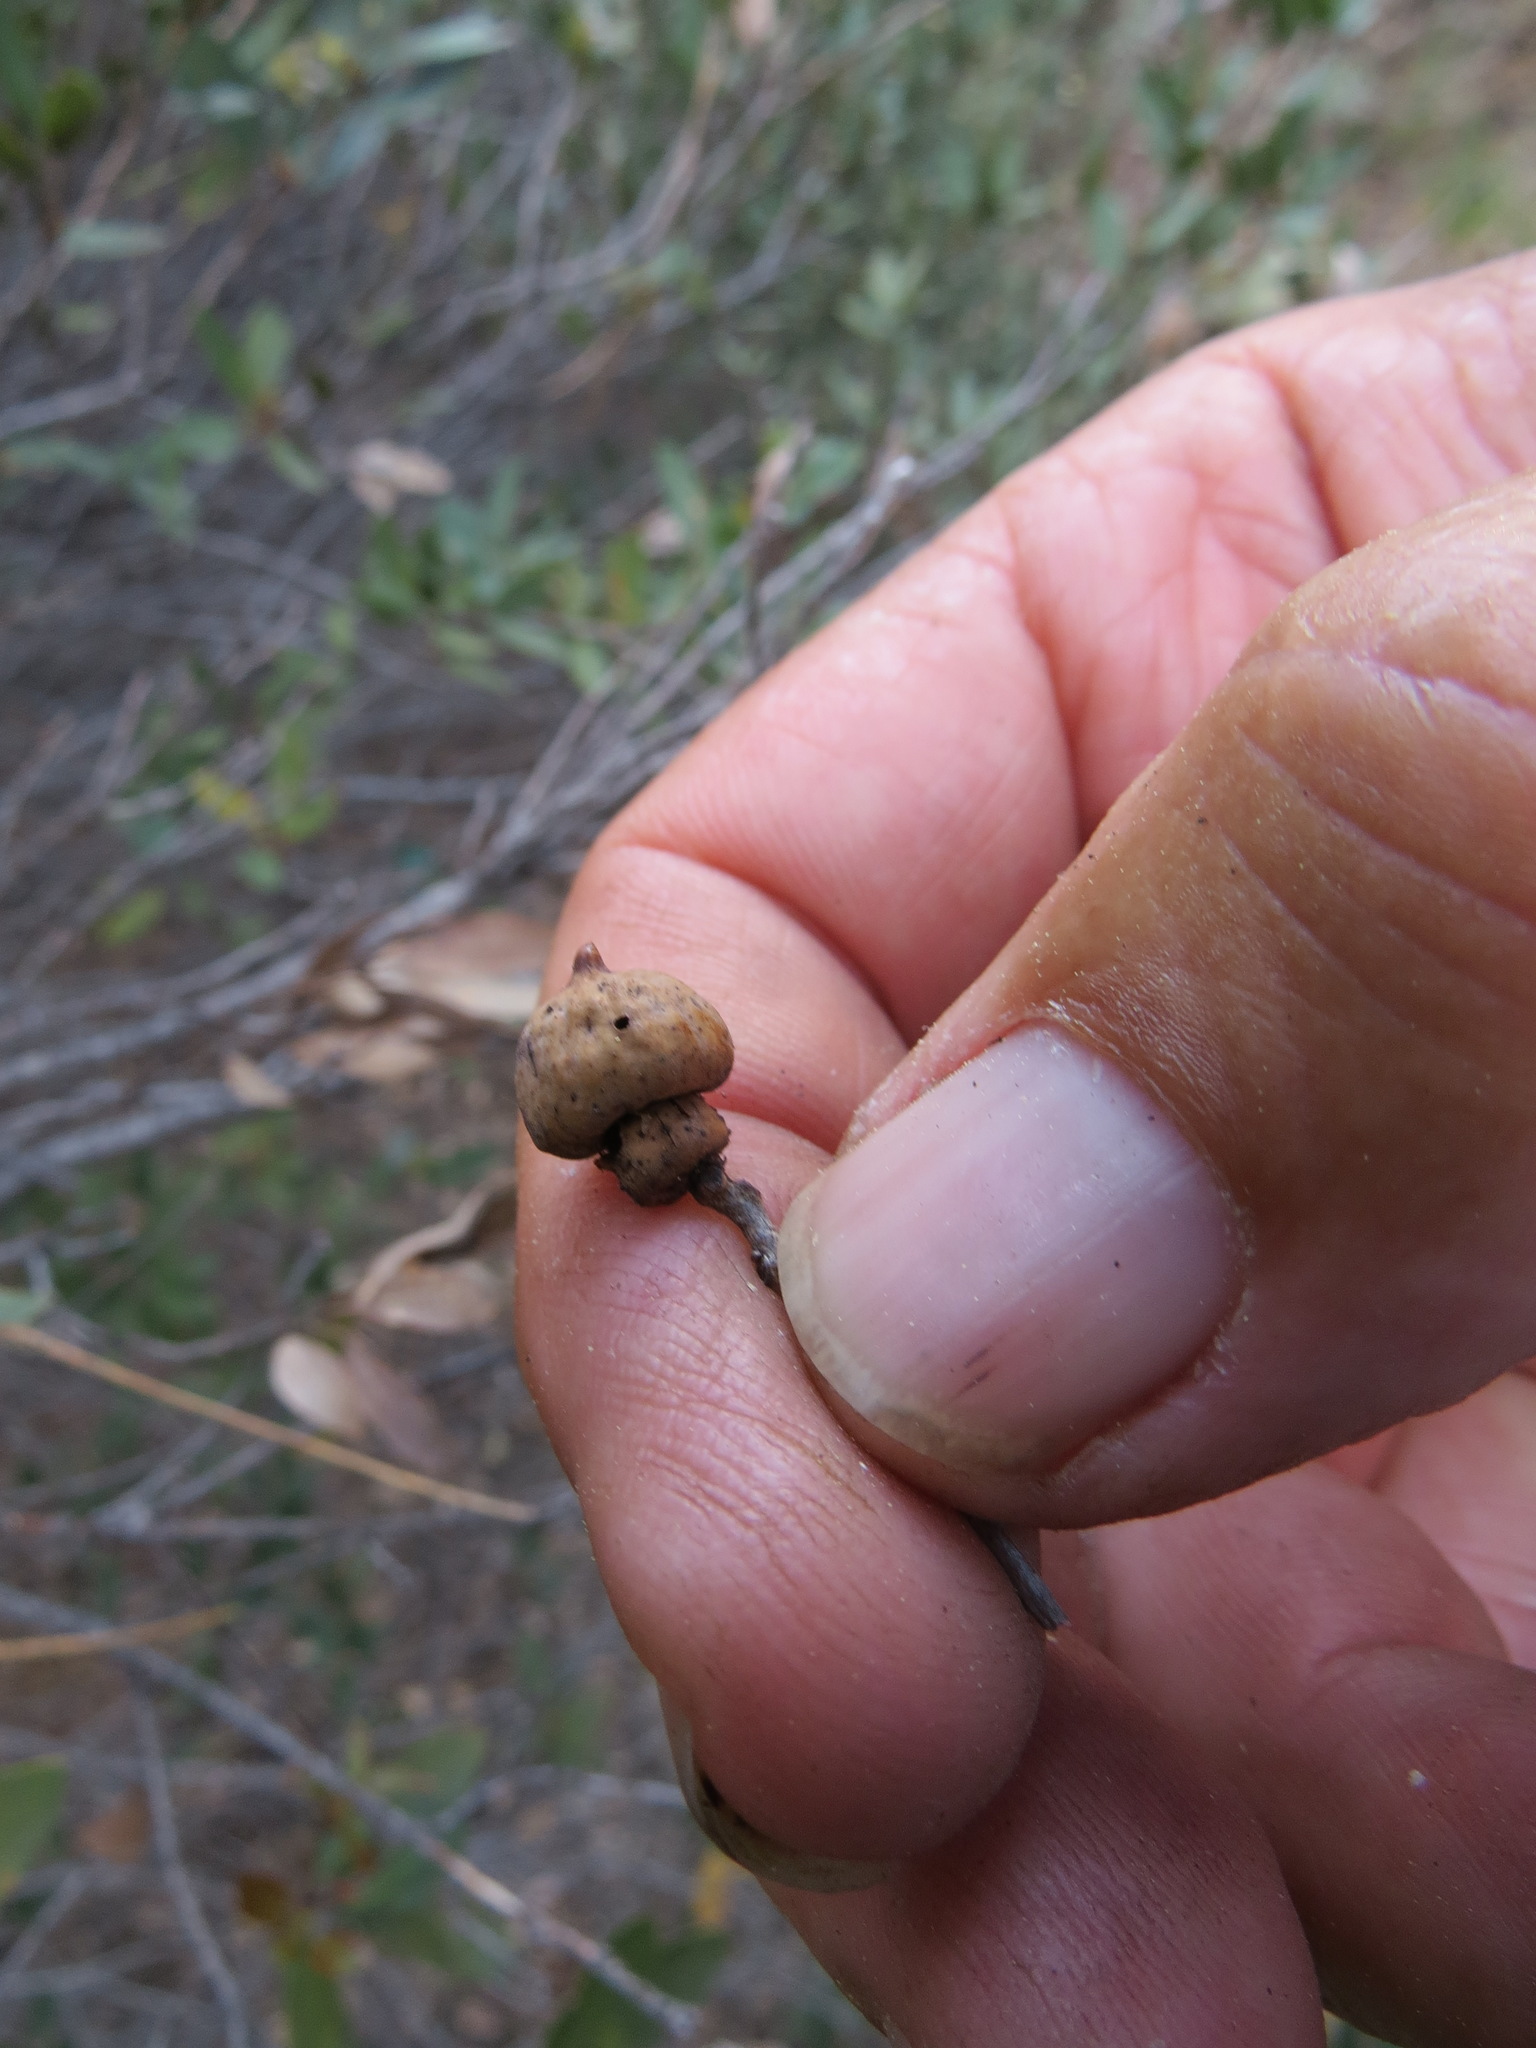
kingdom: Animalia
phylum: Arthropoda
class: Insecta
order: Hymenoptera
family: Cynipidae
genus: Heteroecus
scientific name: Heteroecus
